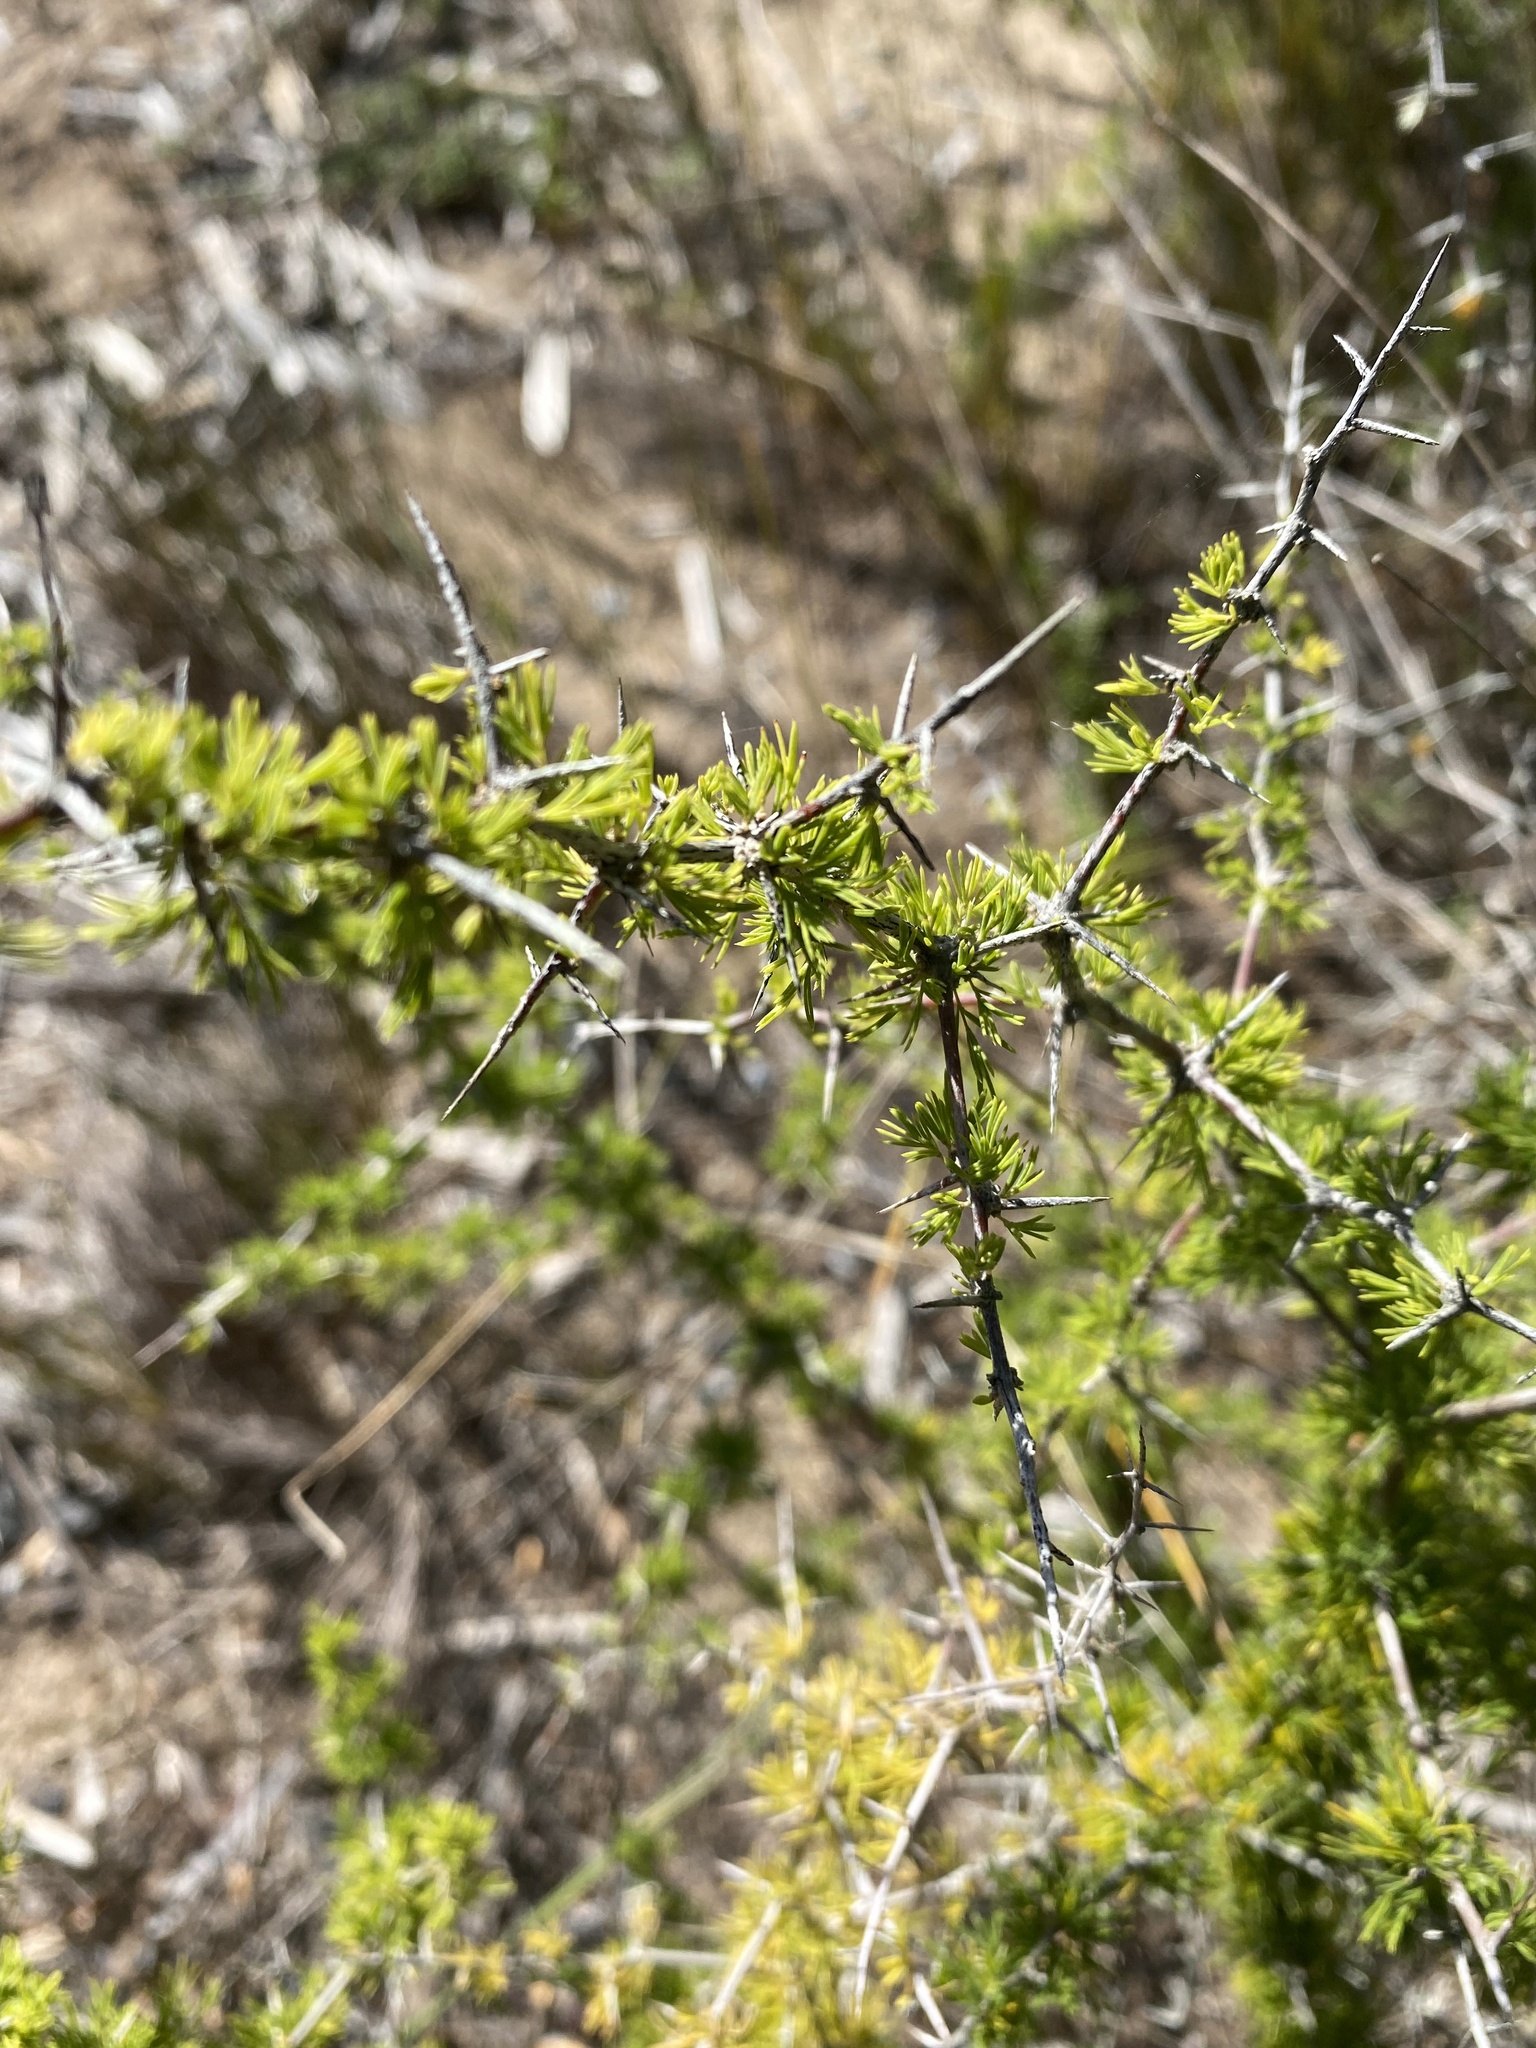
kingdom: Plantae
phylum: Tracheophyta
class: Liliopsida
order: Asparagales
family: Asparagaceae
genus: Asparagus
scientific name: Asparagus suaveolens
